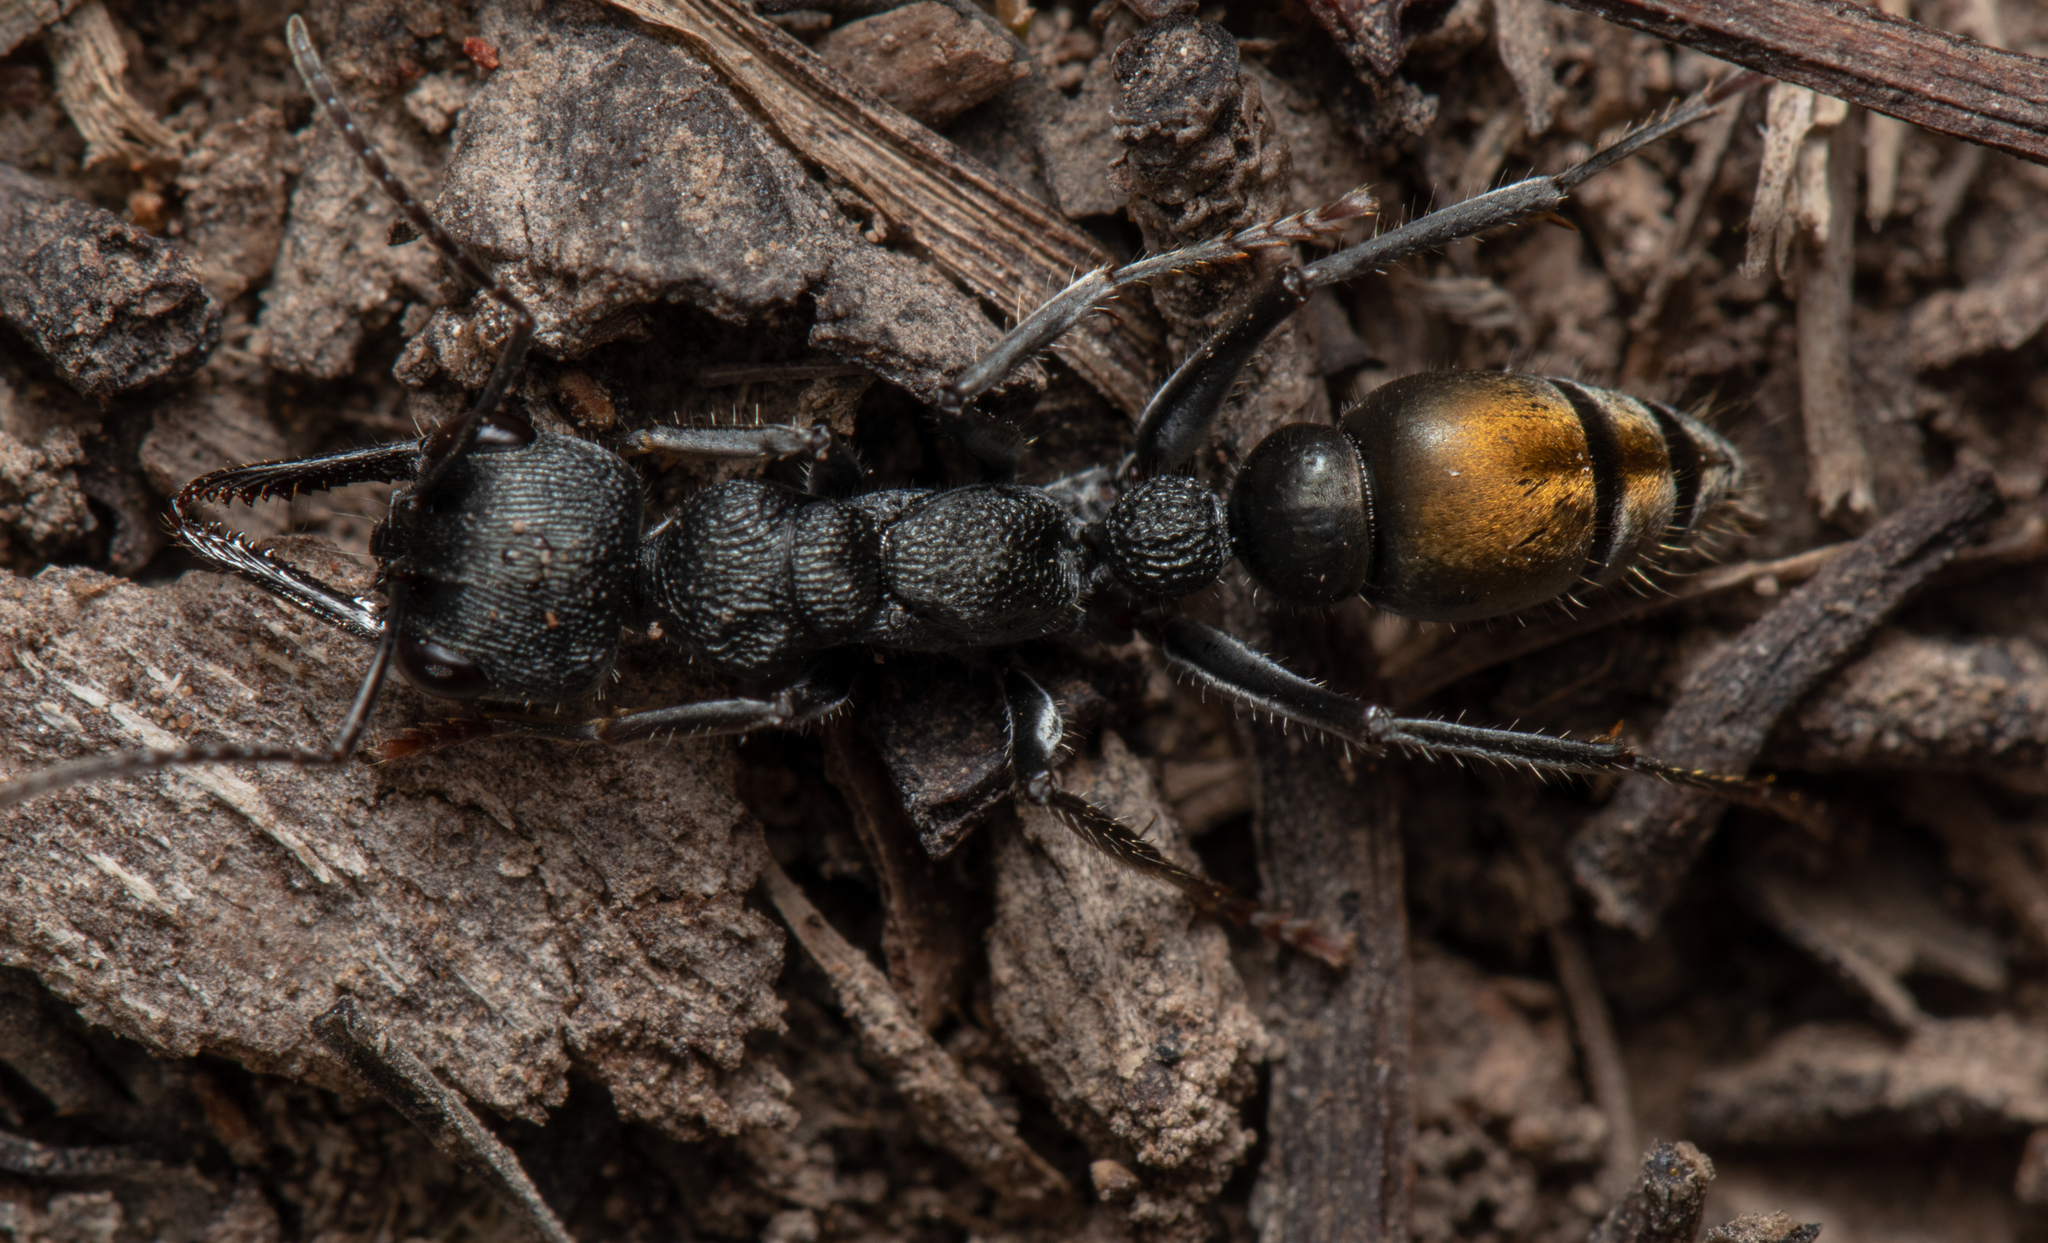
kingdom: Animalia
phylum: Arthropoda
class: Insecta
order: Hymenoptera
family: Formicidae
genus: Myrmecia
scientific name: Myrmecia gilberti
